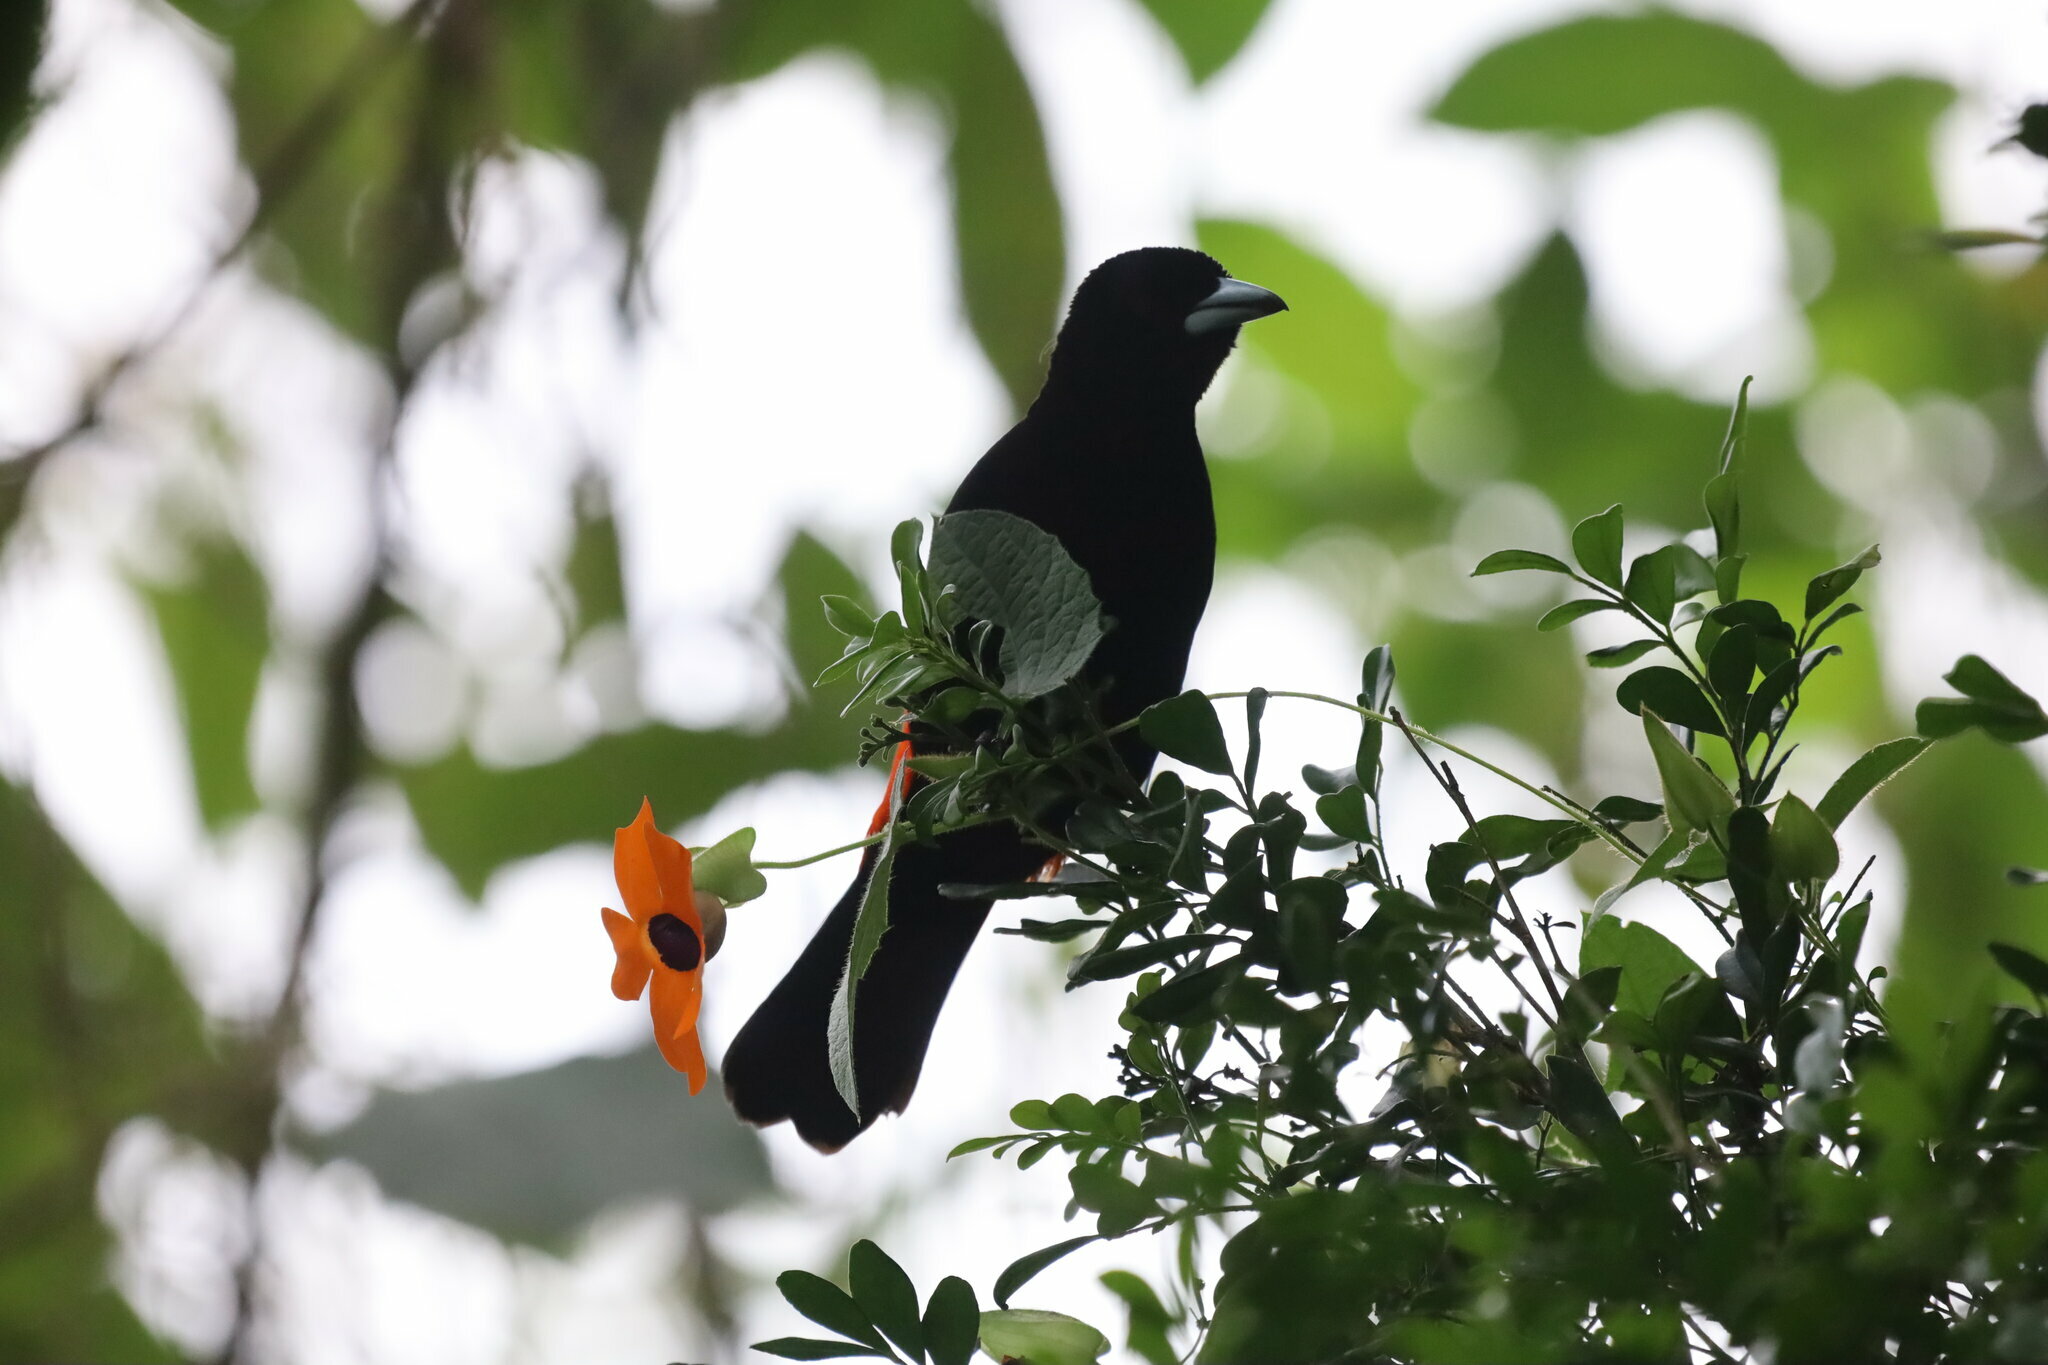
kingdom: Animalia
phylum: Chordata
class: Aves
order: Passeriformes
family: Thraupidae
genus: Ramphocelus
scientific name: Ramphocelus flammigerus
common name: Flame-rumped tanager
